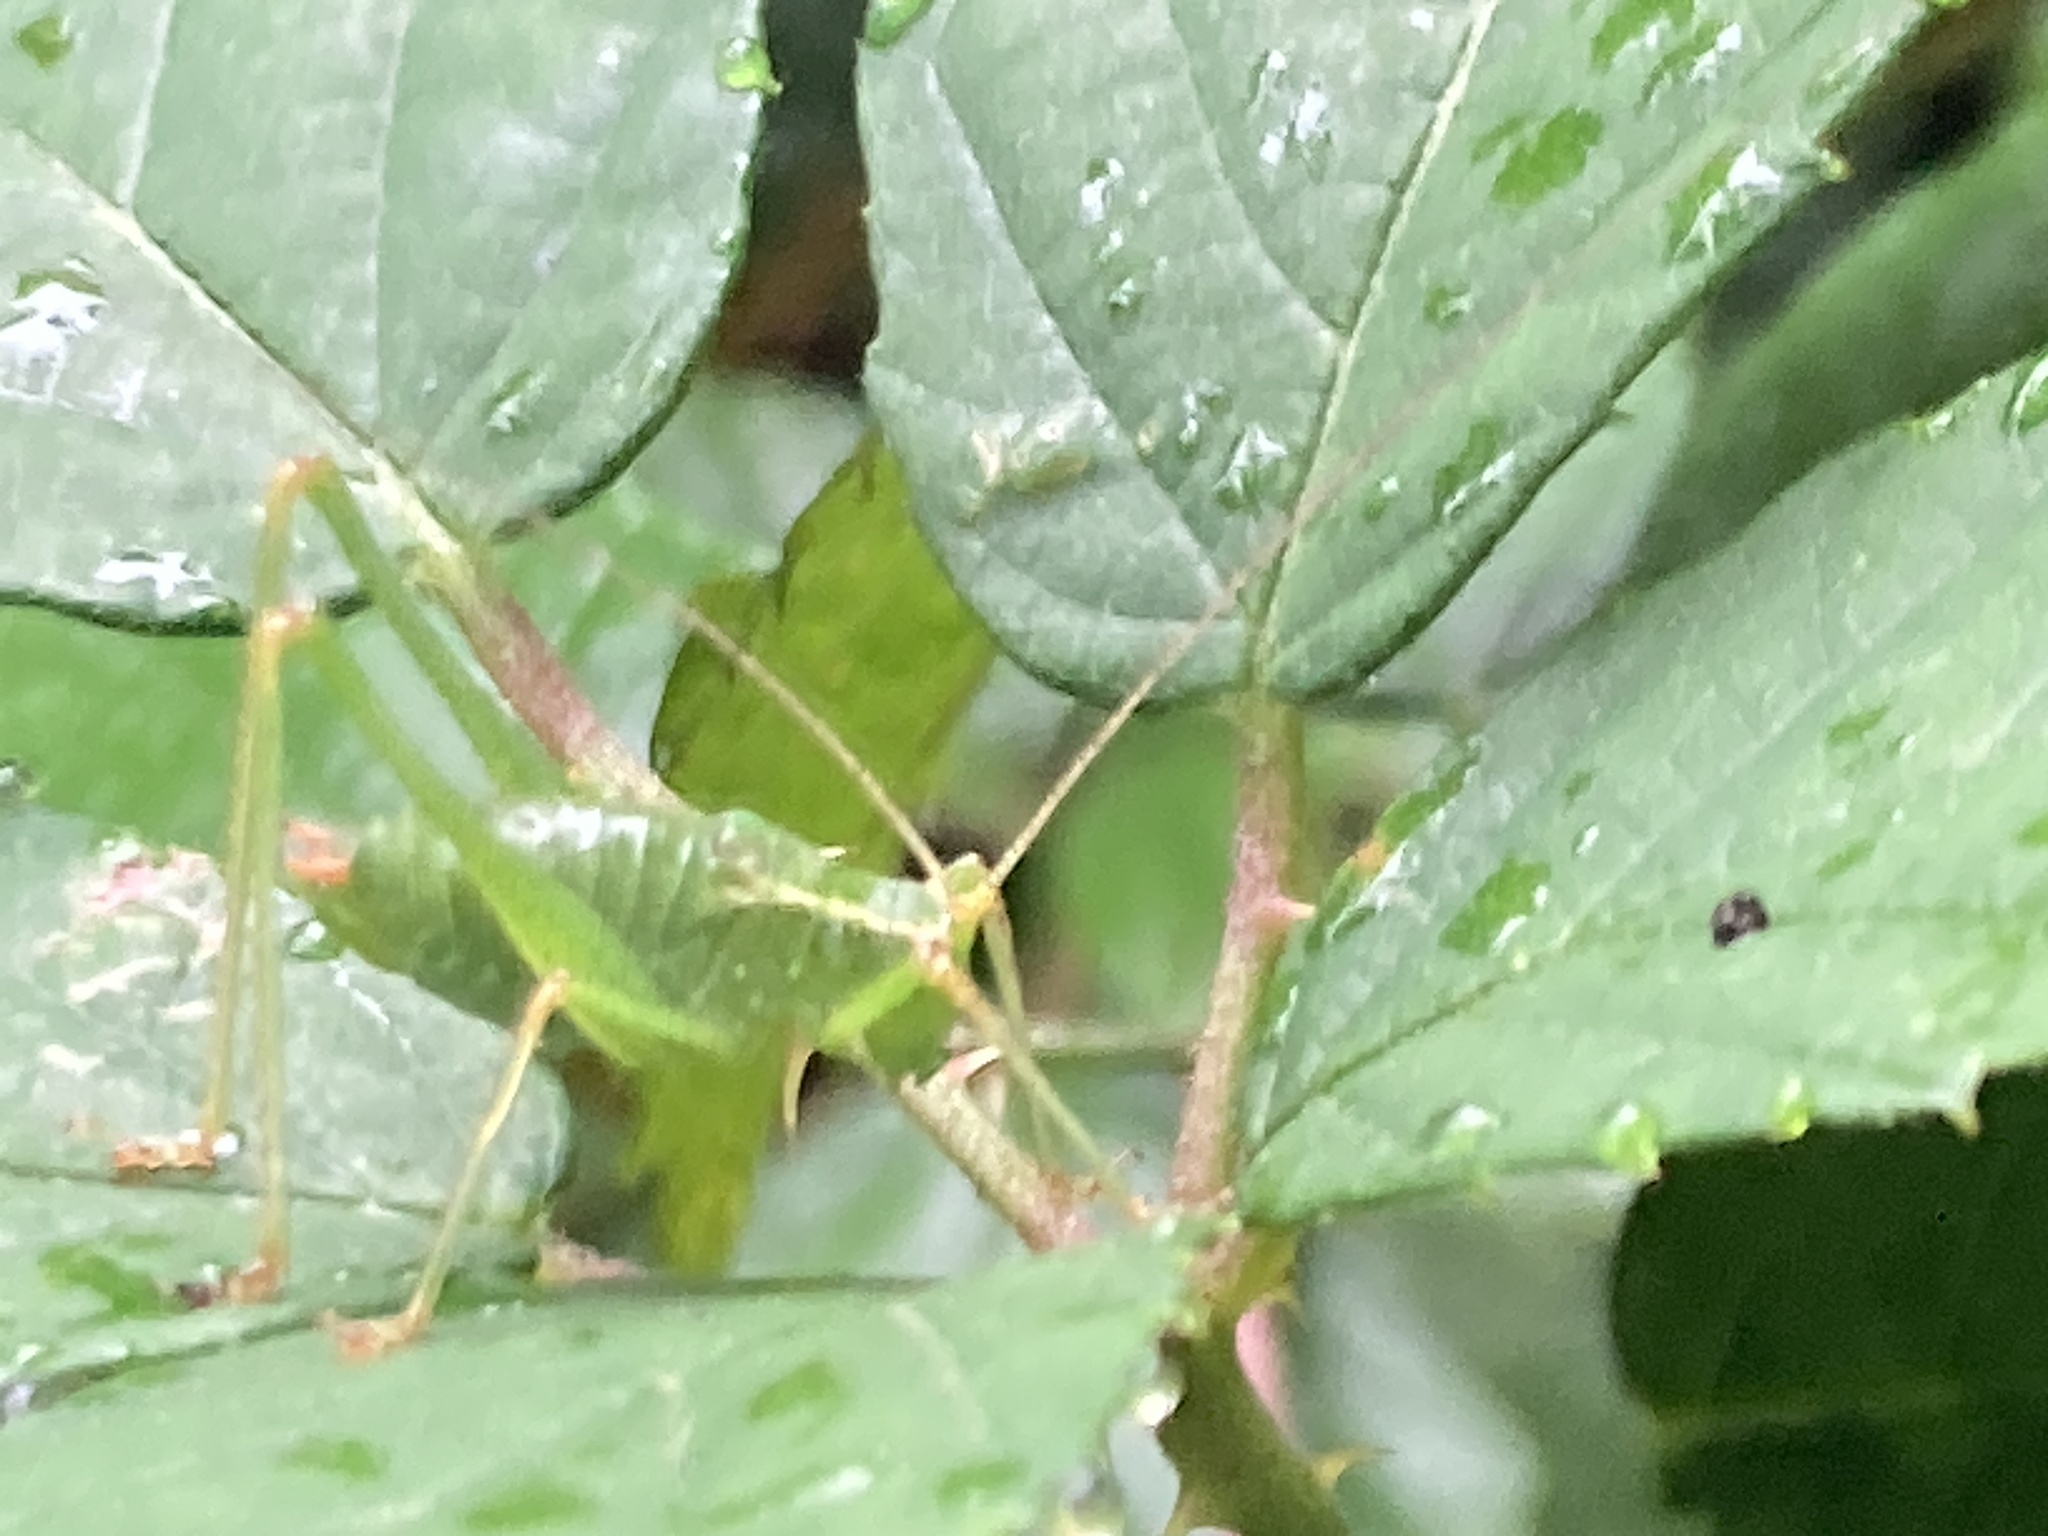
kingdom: Animalia
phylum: Arthropoda
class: Insecta
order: Orthoptera
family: Tettigoniidae
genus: Leptophyes
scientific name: Leptophyes punctatissima
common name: Speckled bush-cricket
